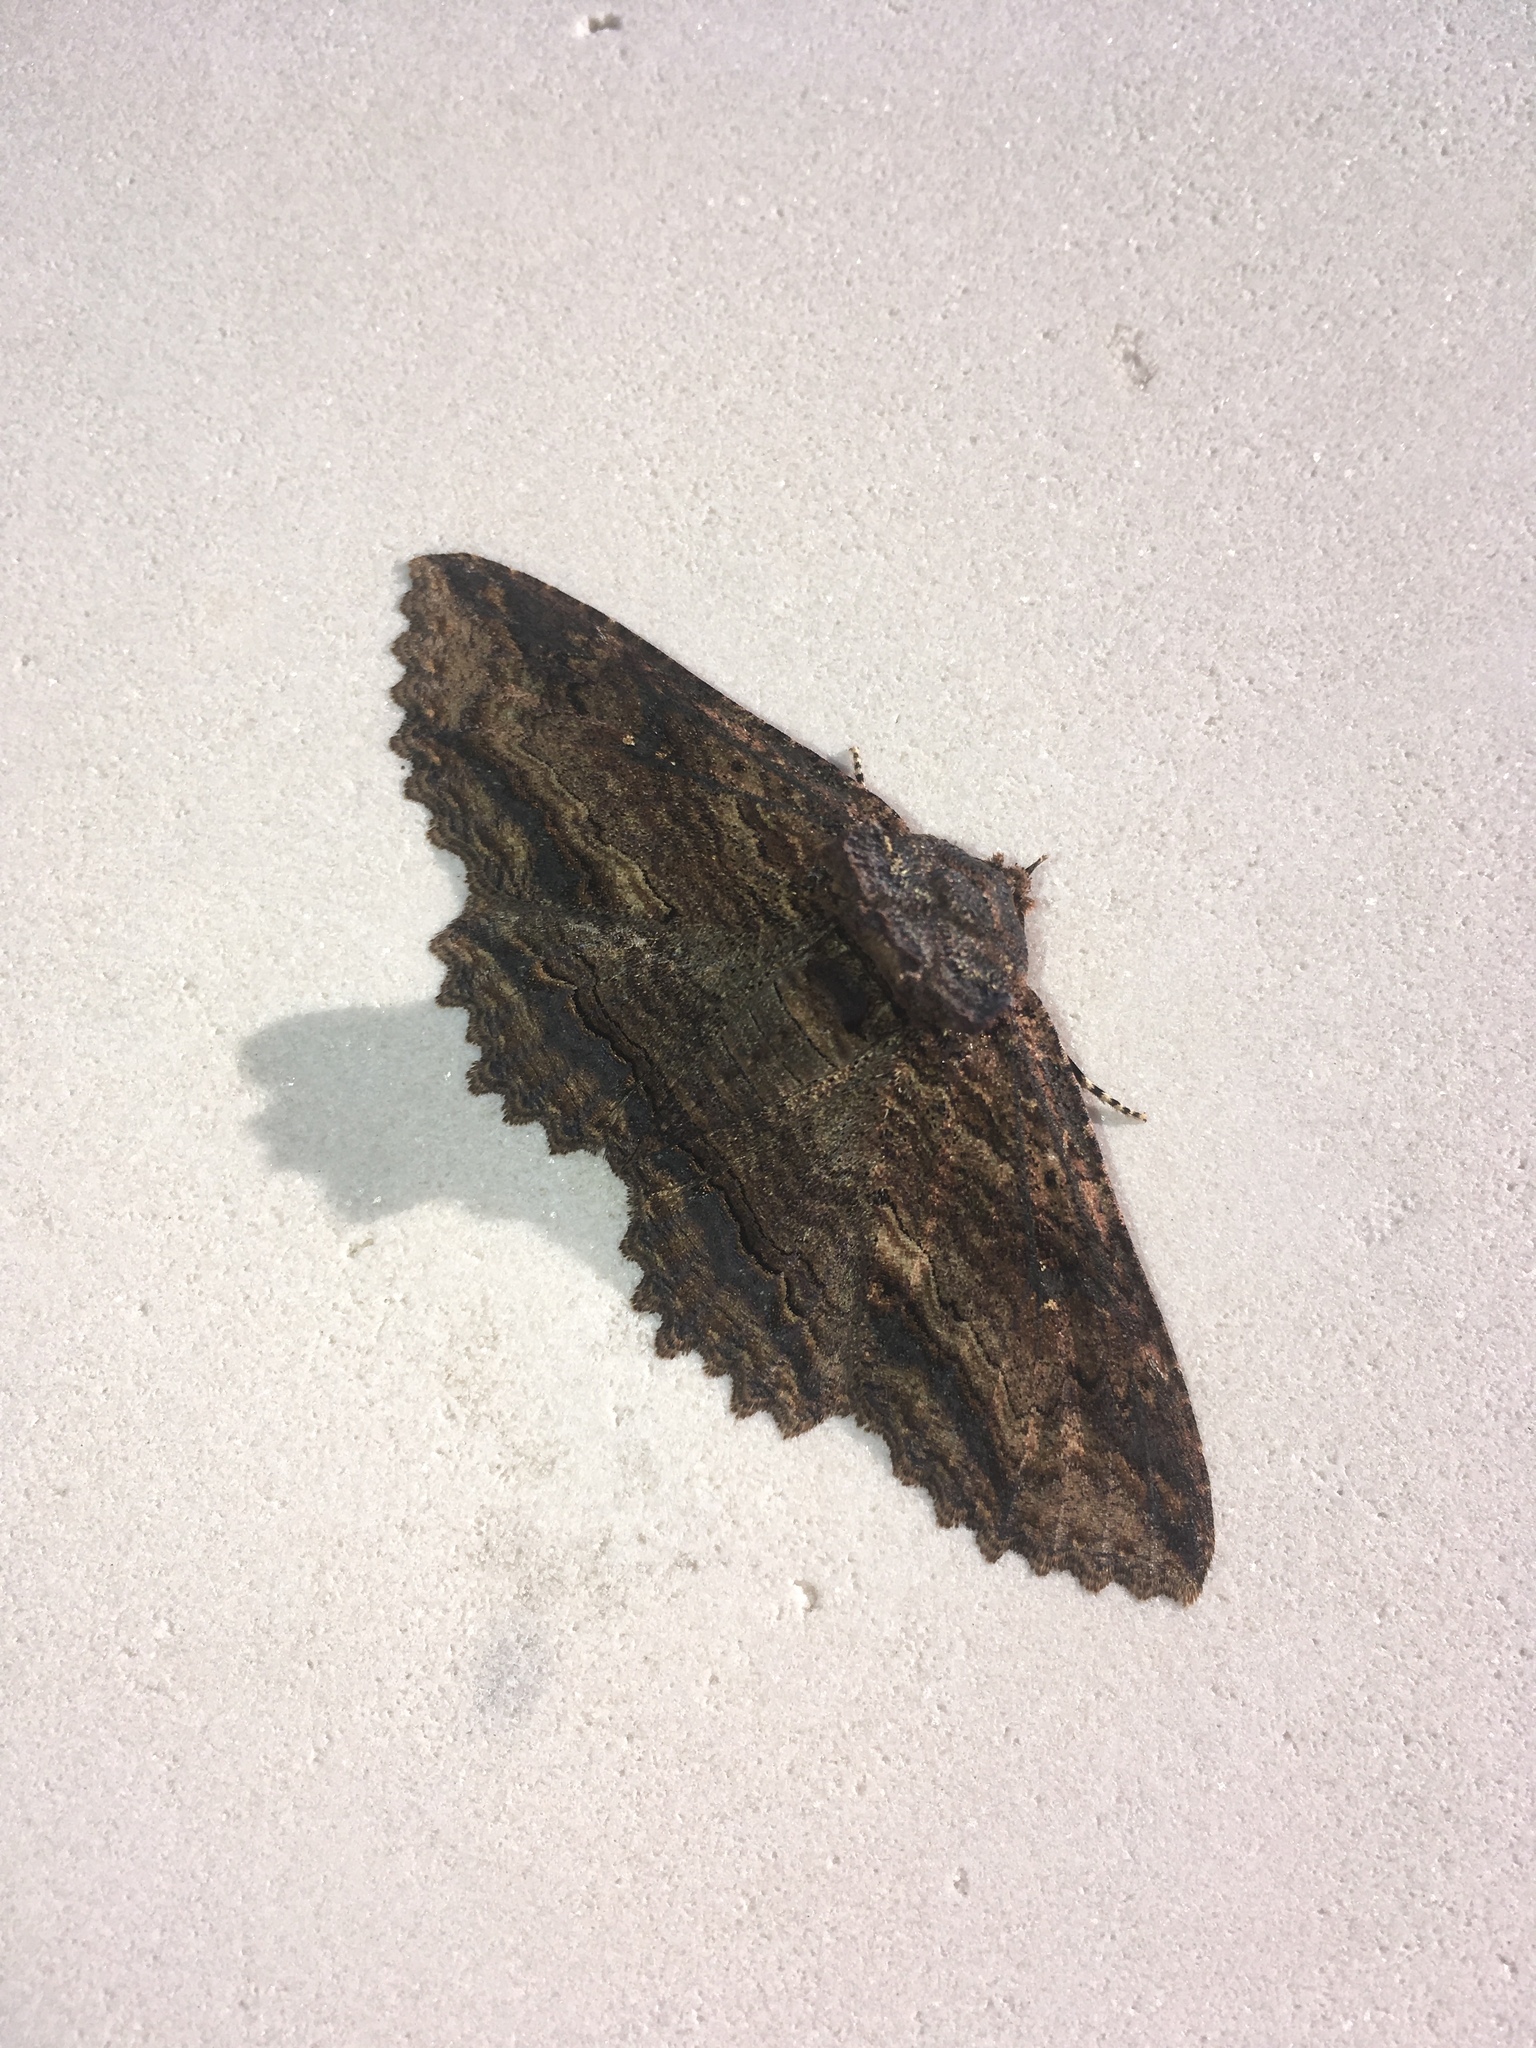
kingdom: Animalia
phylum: Arthropoda
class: Insecta
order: Lepidoptera
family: Erebidae
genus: Zale
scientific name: Zale lunata
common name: Lunate zale moth
